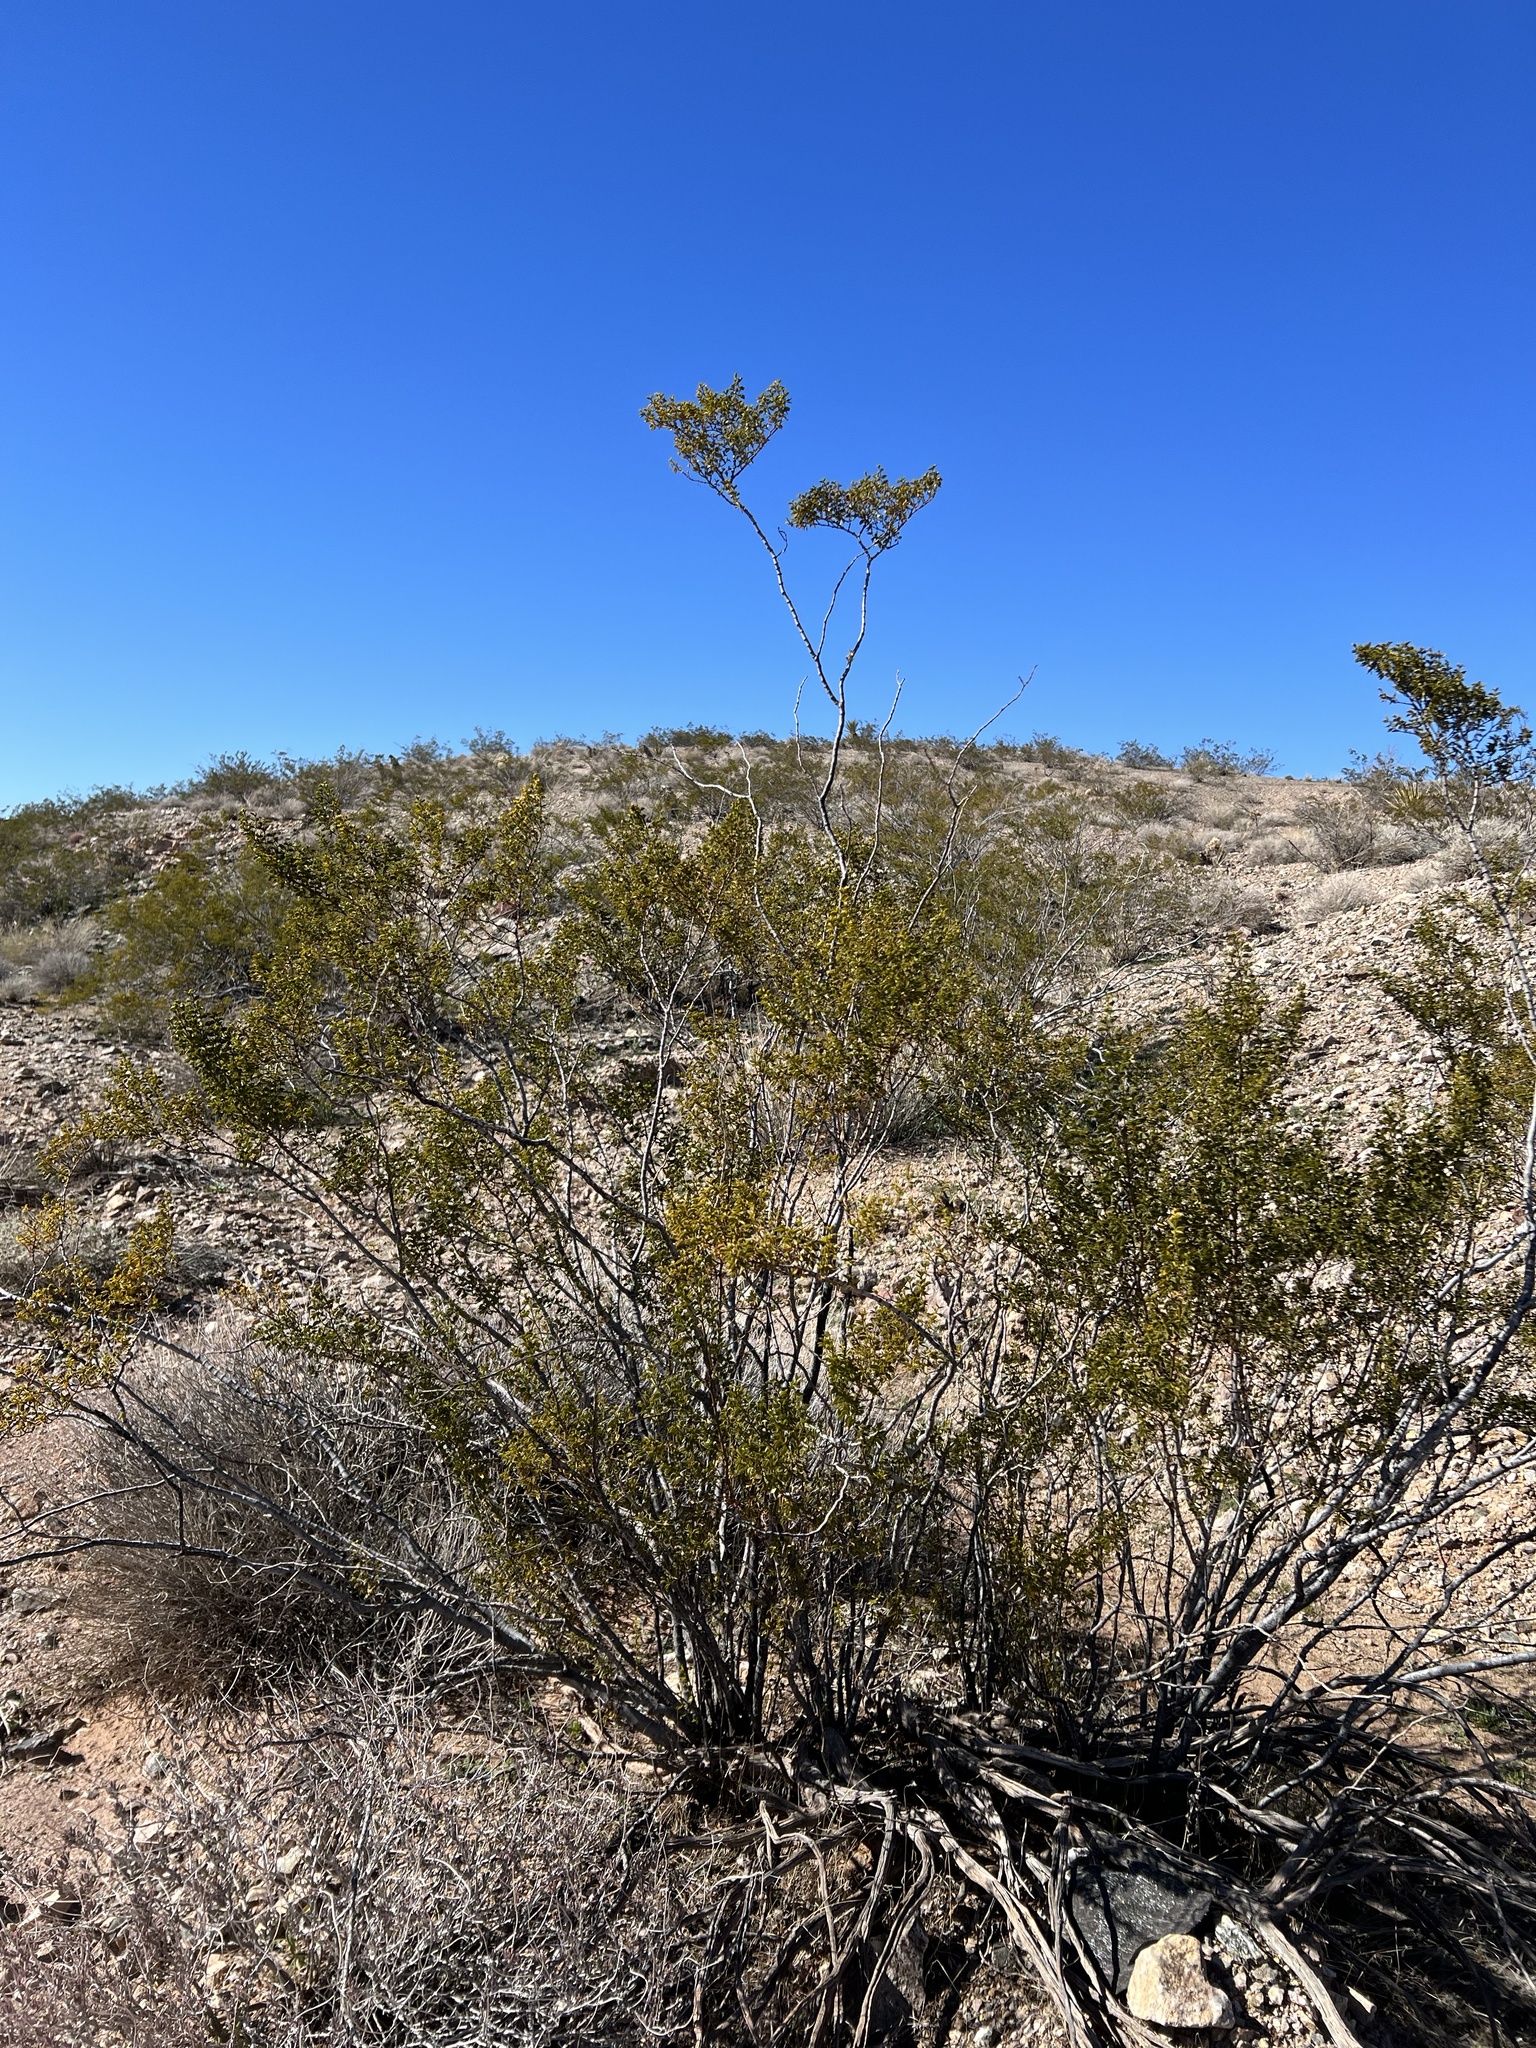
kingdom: Plantae
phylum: Tracheophyta
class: Magnoliopsida
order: Zygophyllales
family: Zygophyllaceae
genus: Larrea
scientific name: Larrea tridentata
